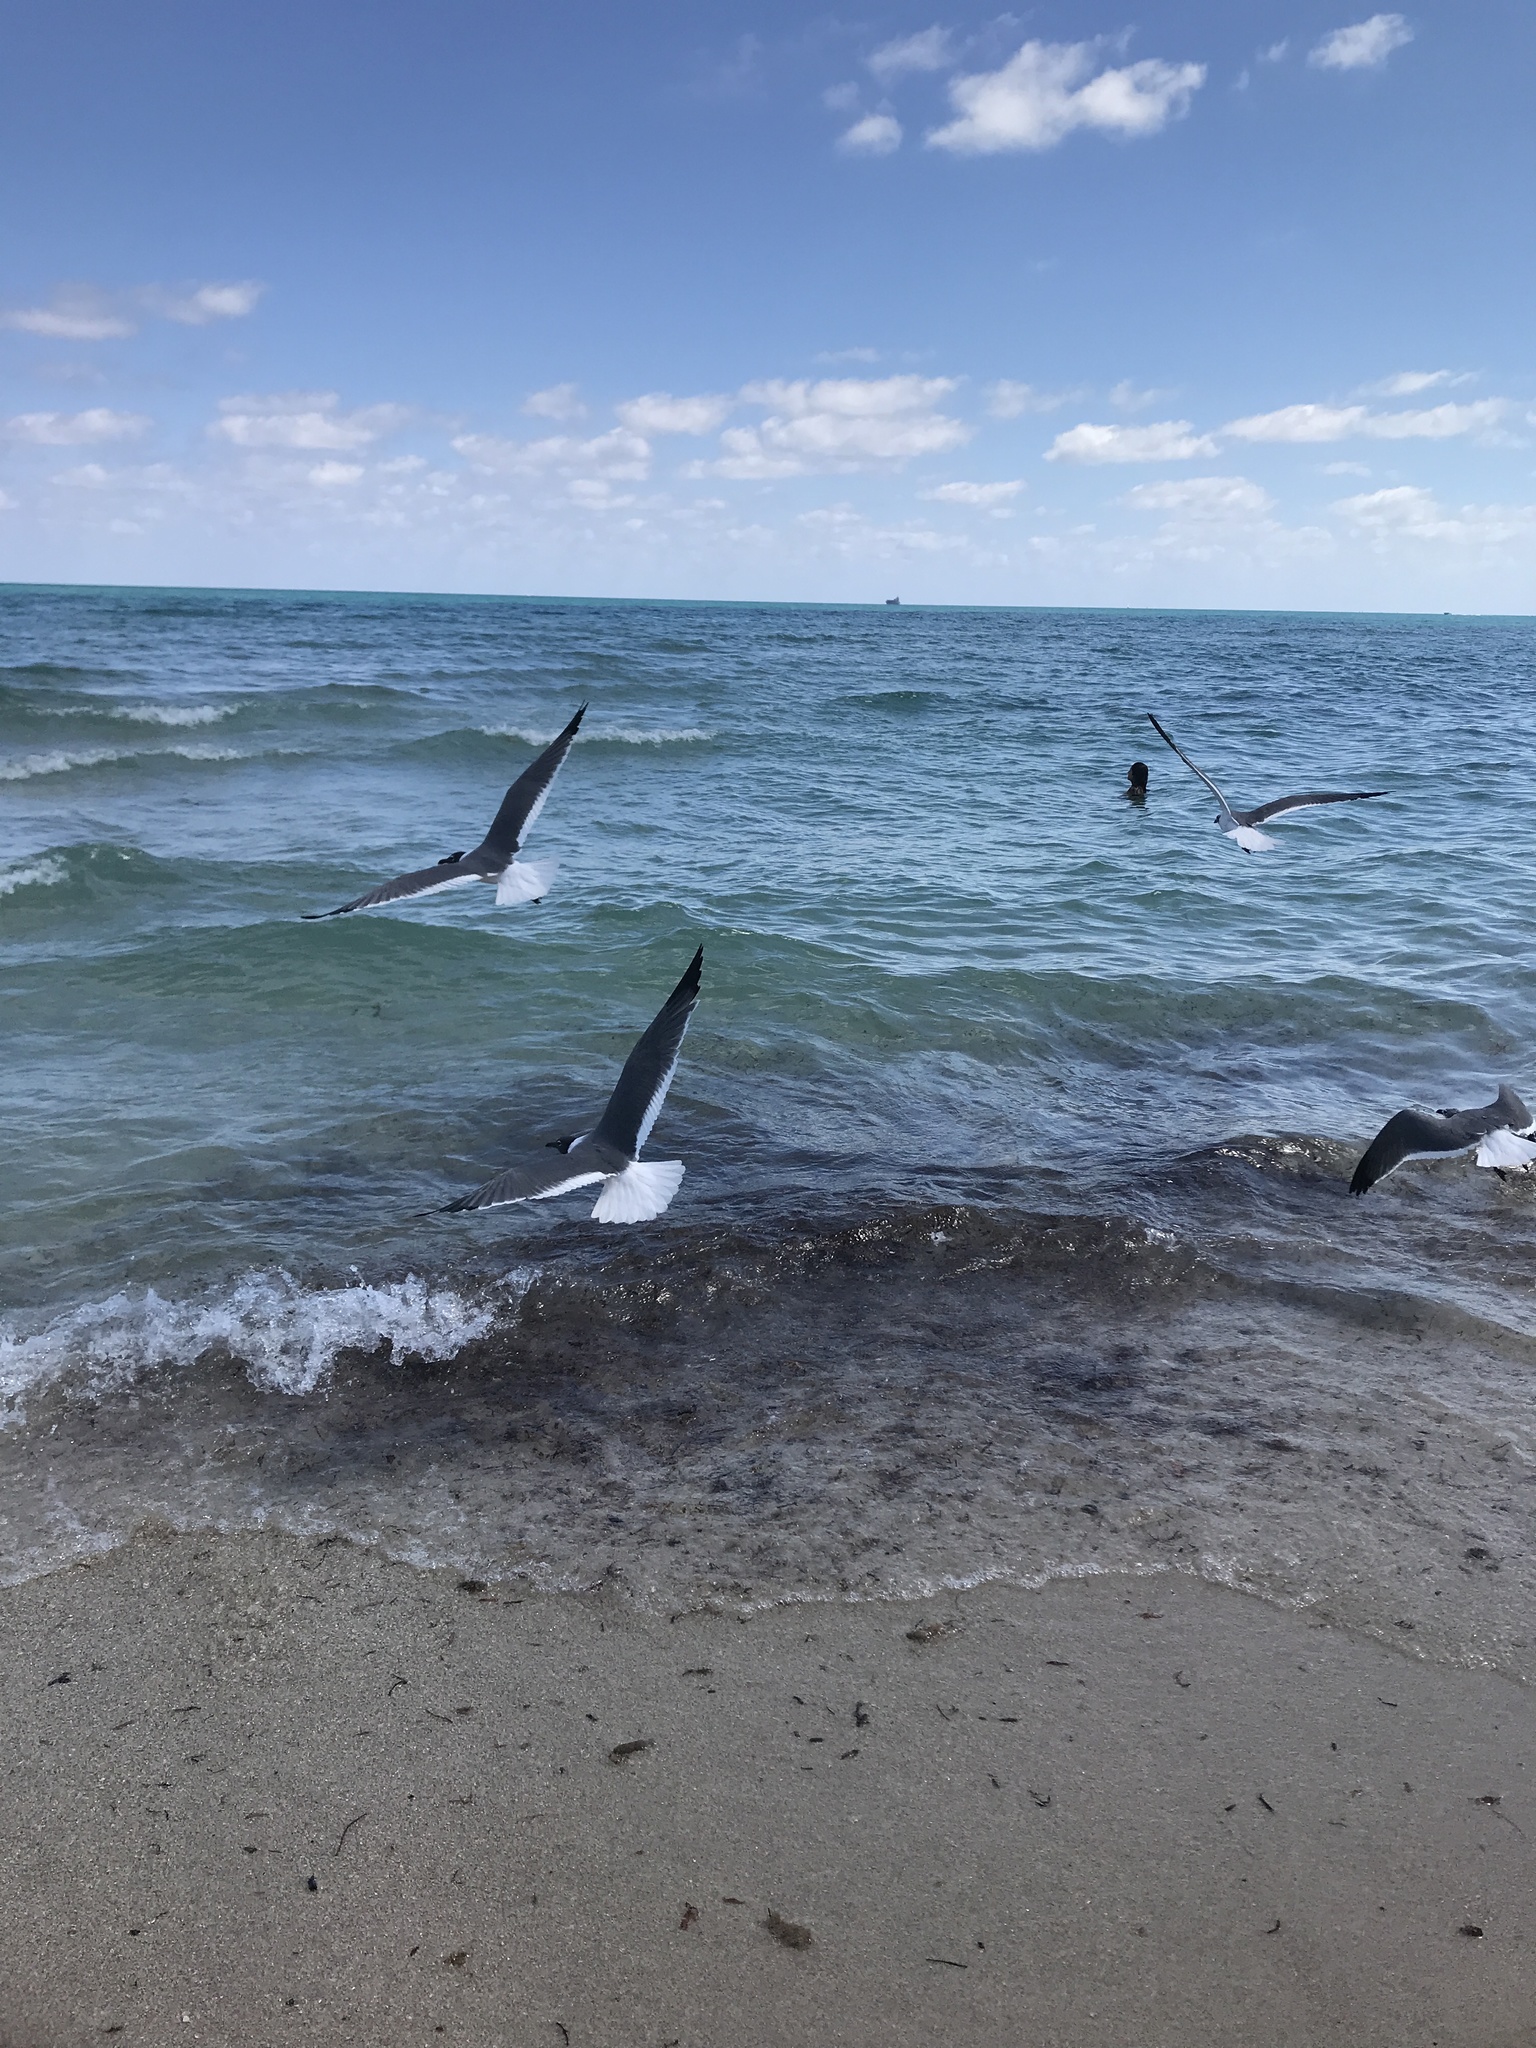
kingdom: Animalia
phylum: Chordata
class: Aves
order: Charadriiformes
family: Laridae
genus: Leucophaeus
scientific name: Leucophaeus atricilla
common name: Laughing gull
